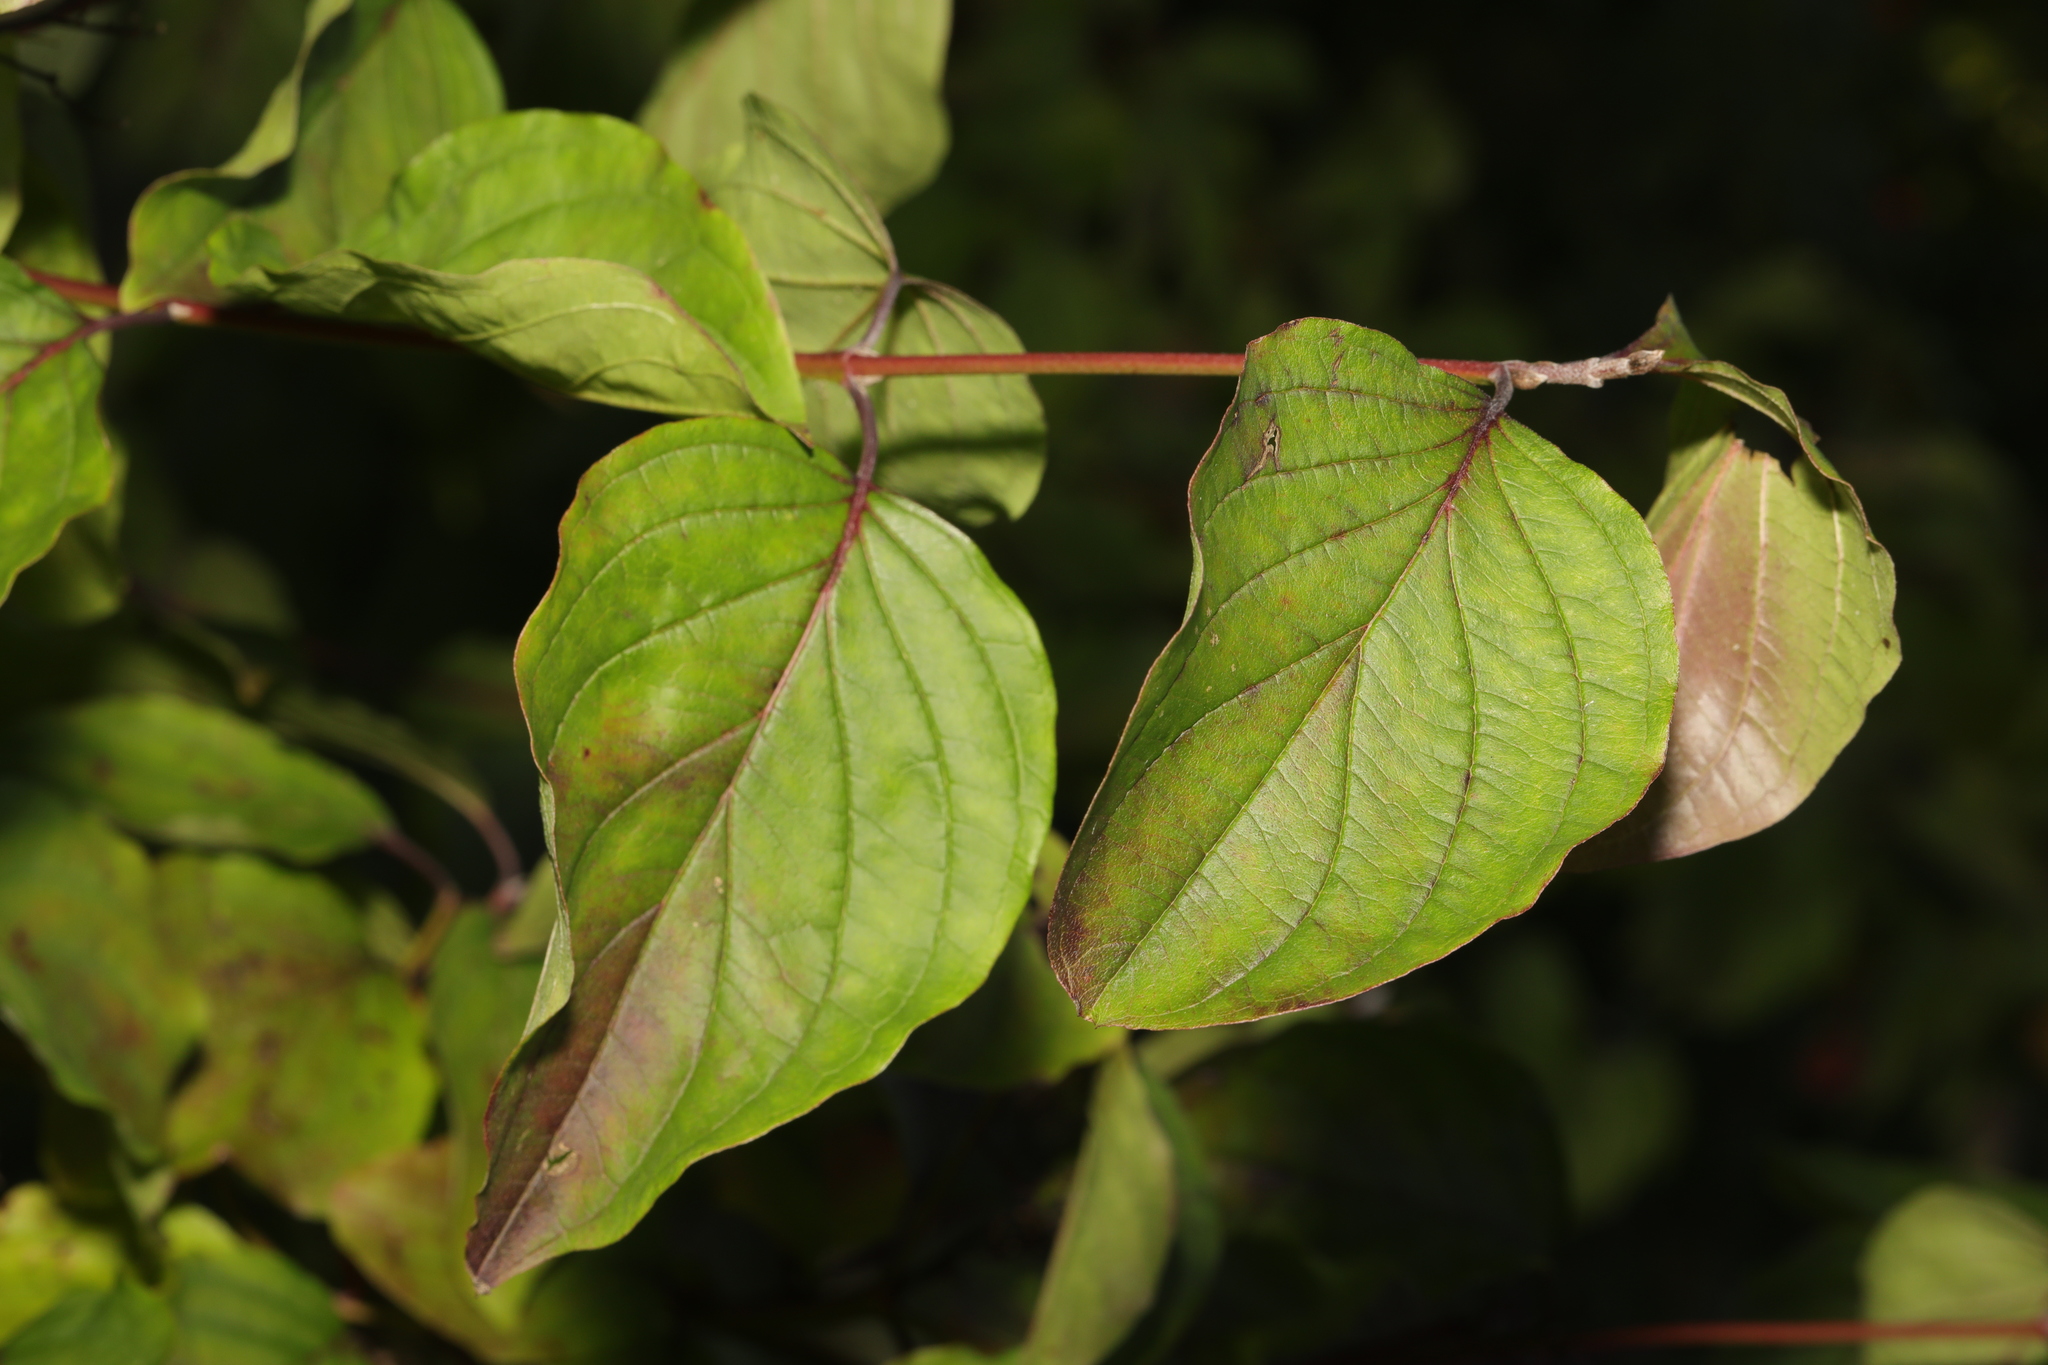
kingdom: Plantae
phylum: Tracheophyta
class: Magnoliopsida
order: Cornales
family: Cornaceae
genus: Cornus
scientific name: Cornus sanguinea
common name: Dogwood
